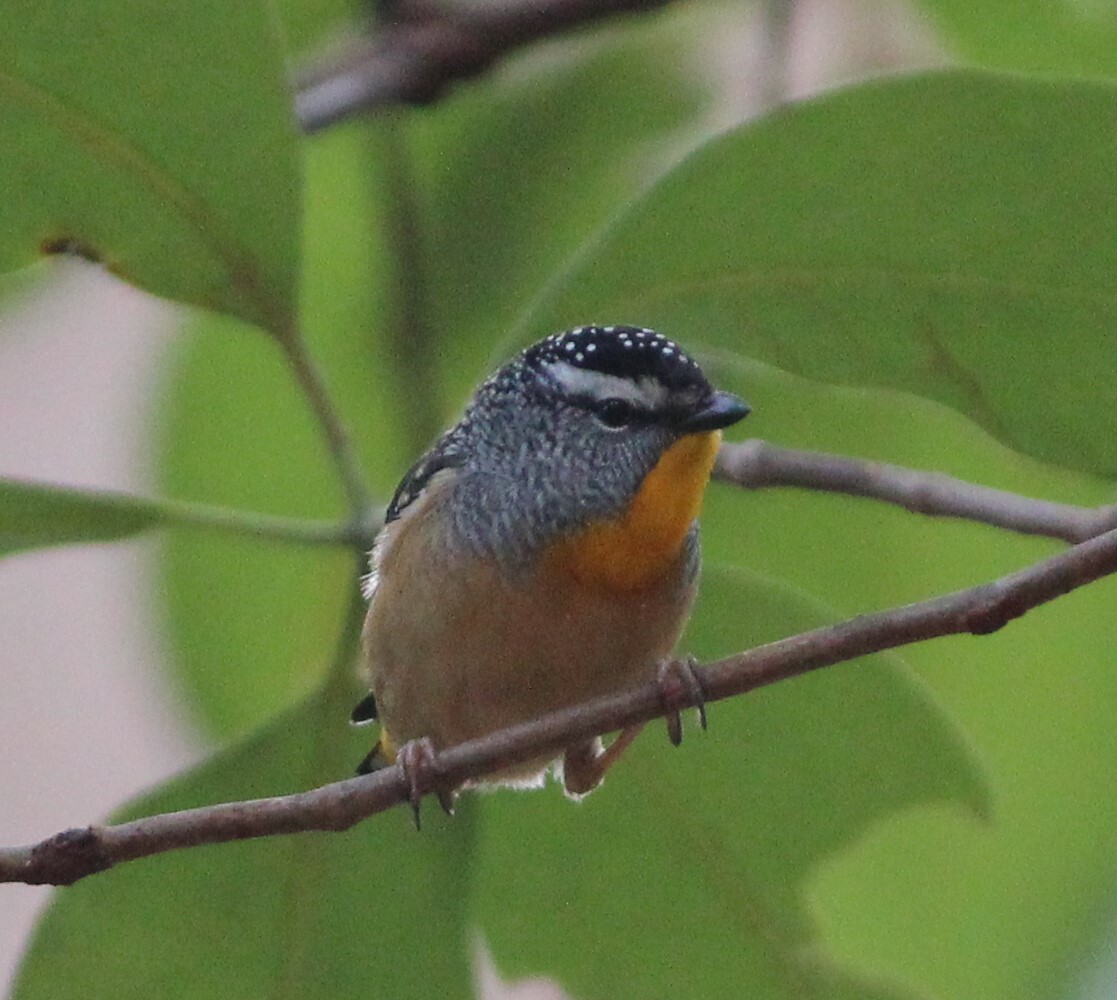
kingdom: Animalia
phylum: Chordata
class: Aves
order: Passeriformes
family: Pardalotidae
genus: Pardalotus
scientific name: Pardalotus punctatus
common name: Spotted pardalote
